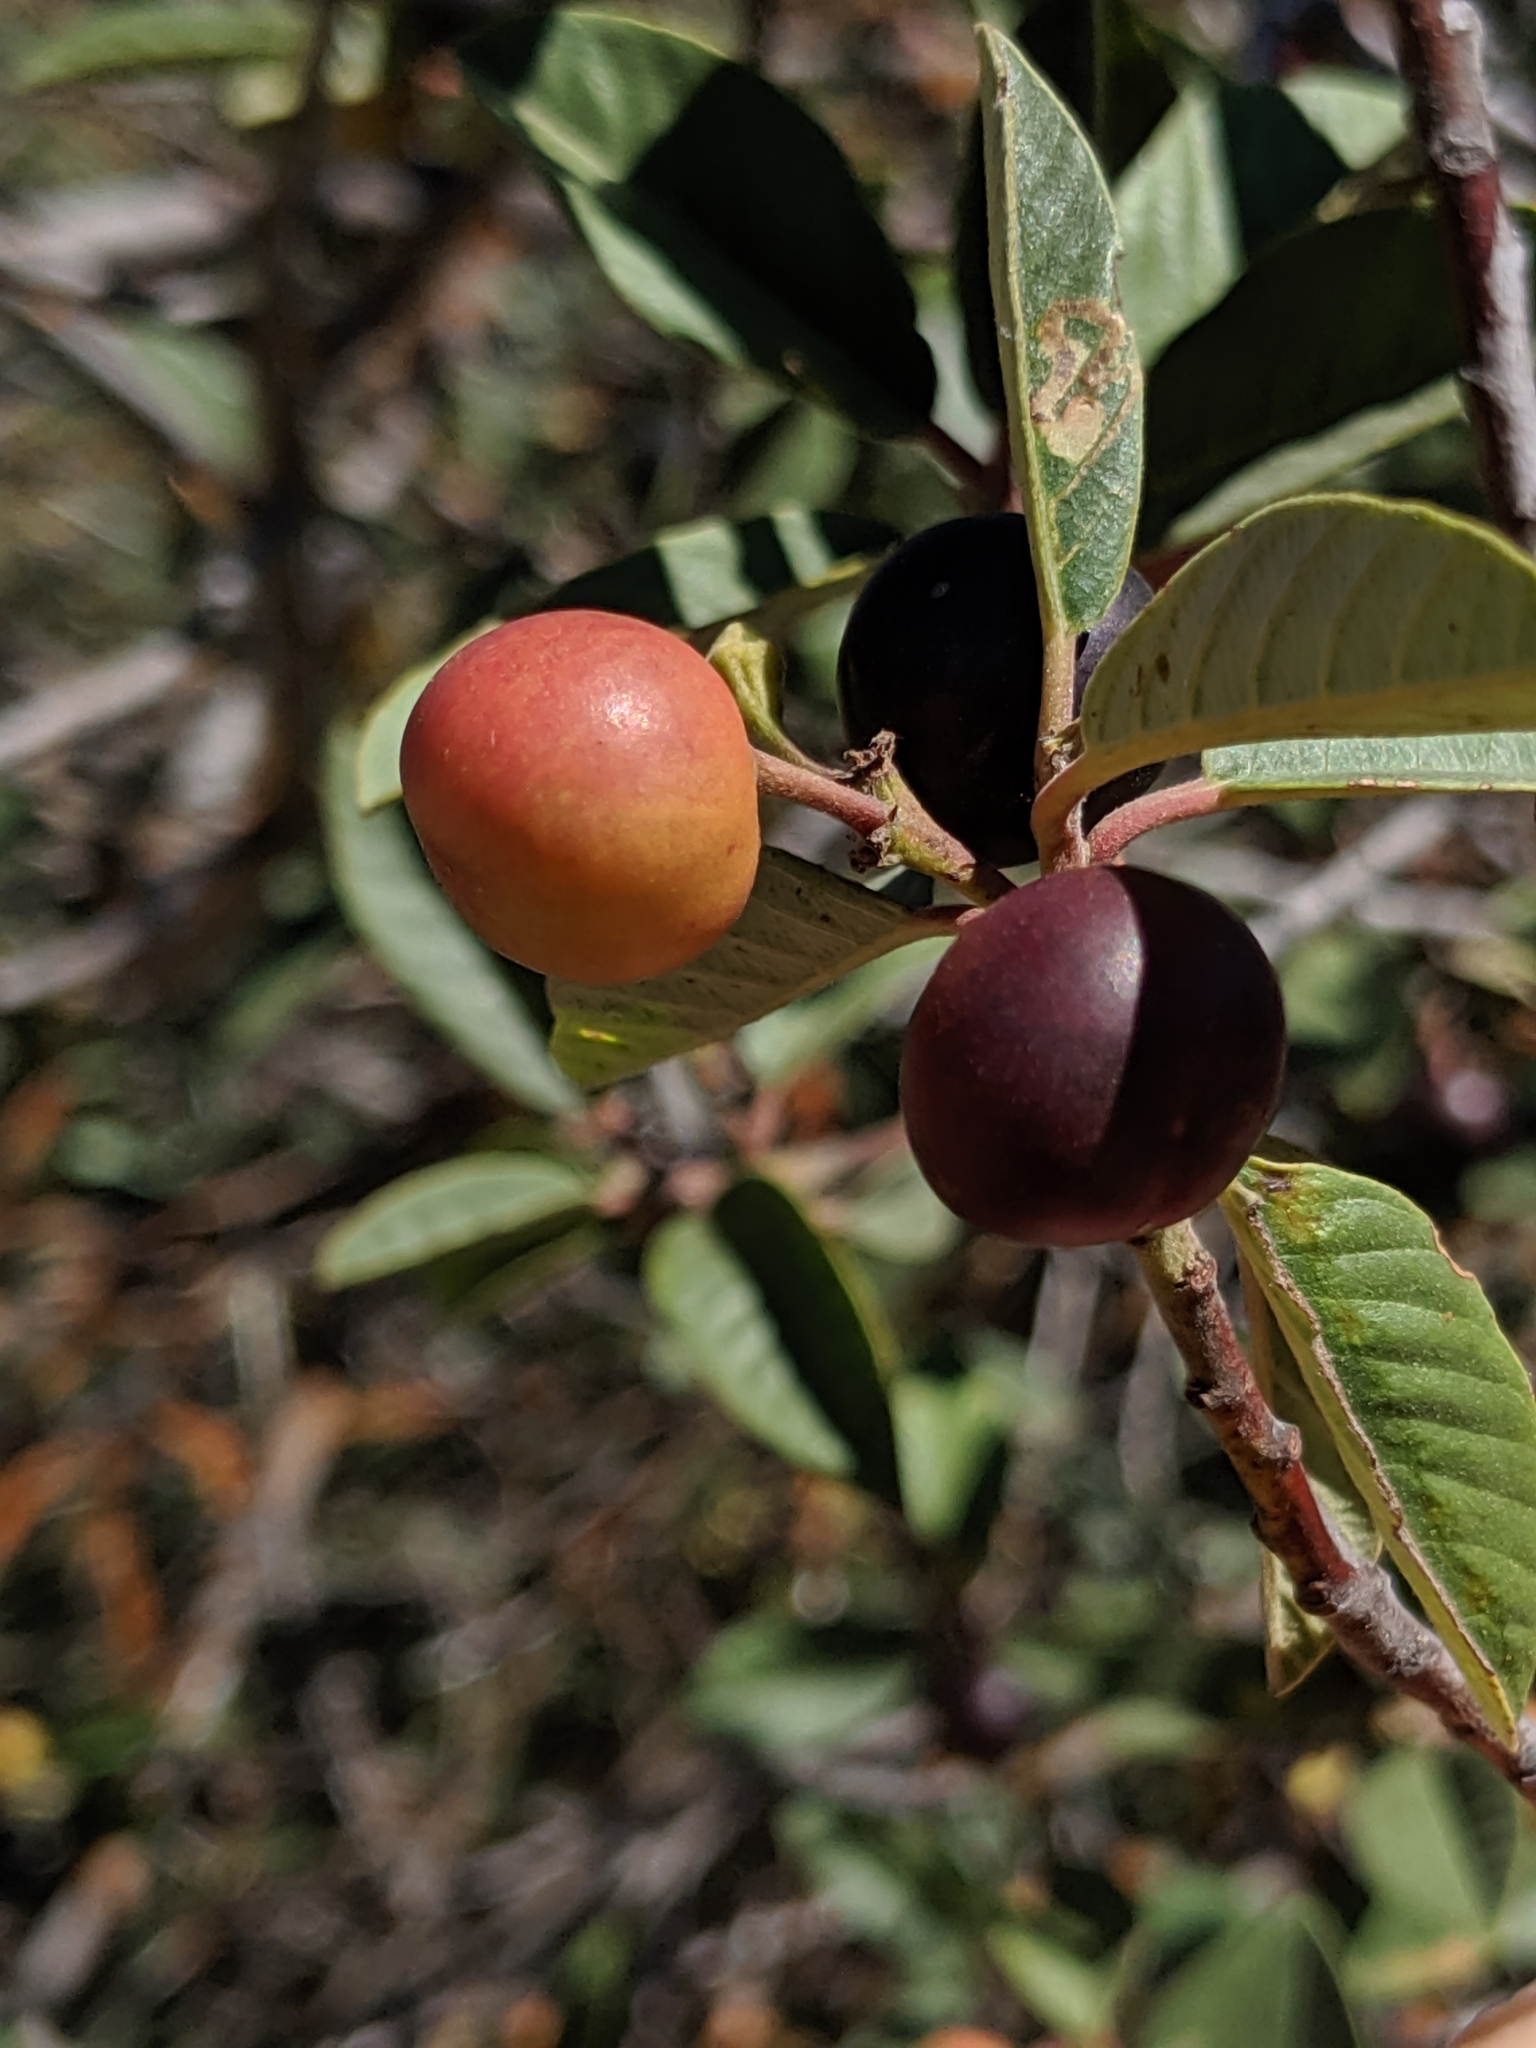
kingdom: Plantae
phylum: Tracheophyta
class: Magnoliopsida
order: Rosales
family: Rhamnaceae
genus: Frangula
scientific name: Frangula californica
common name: California buckthorn
